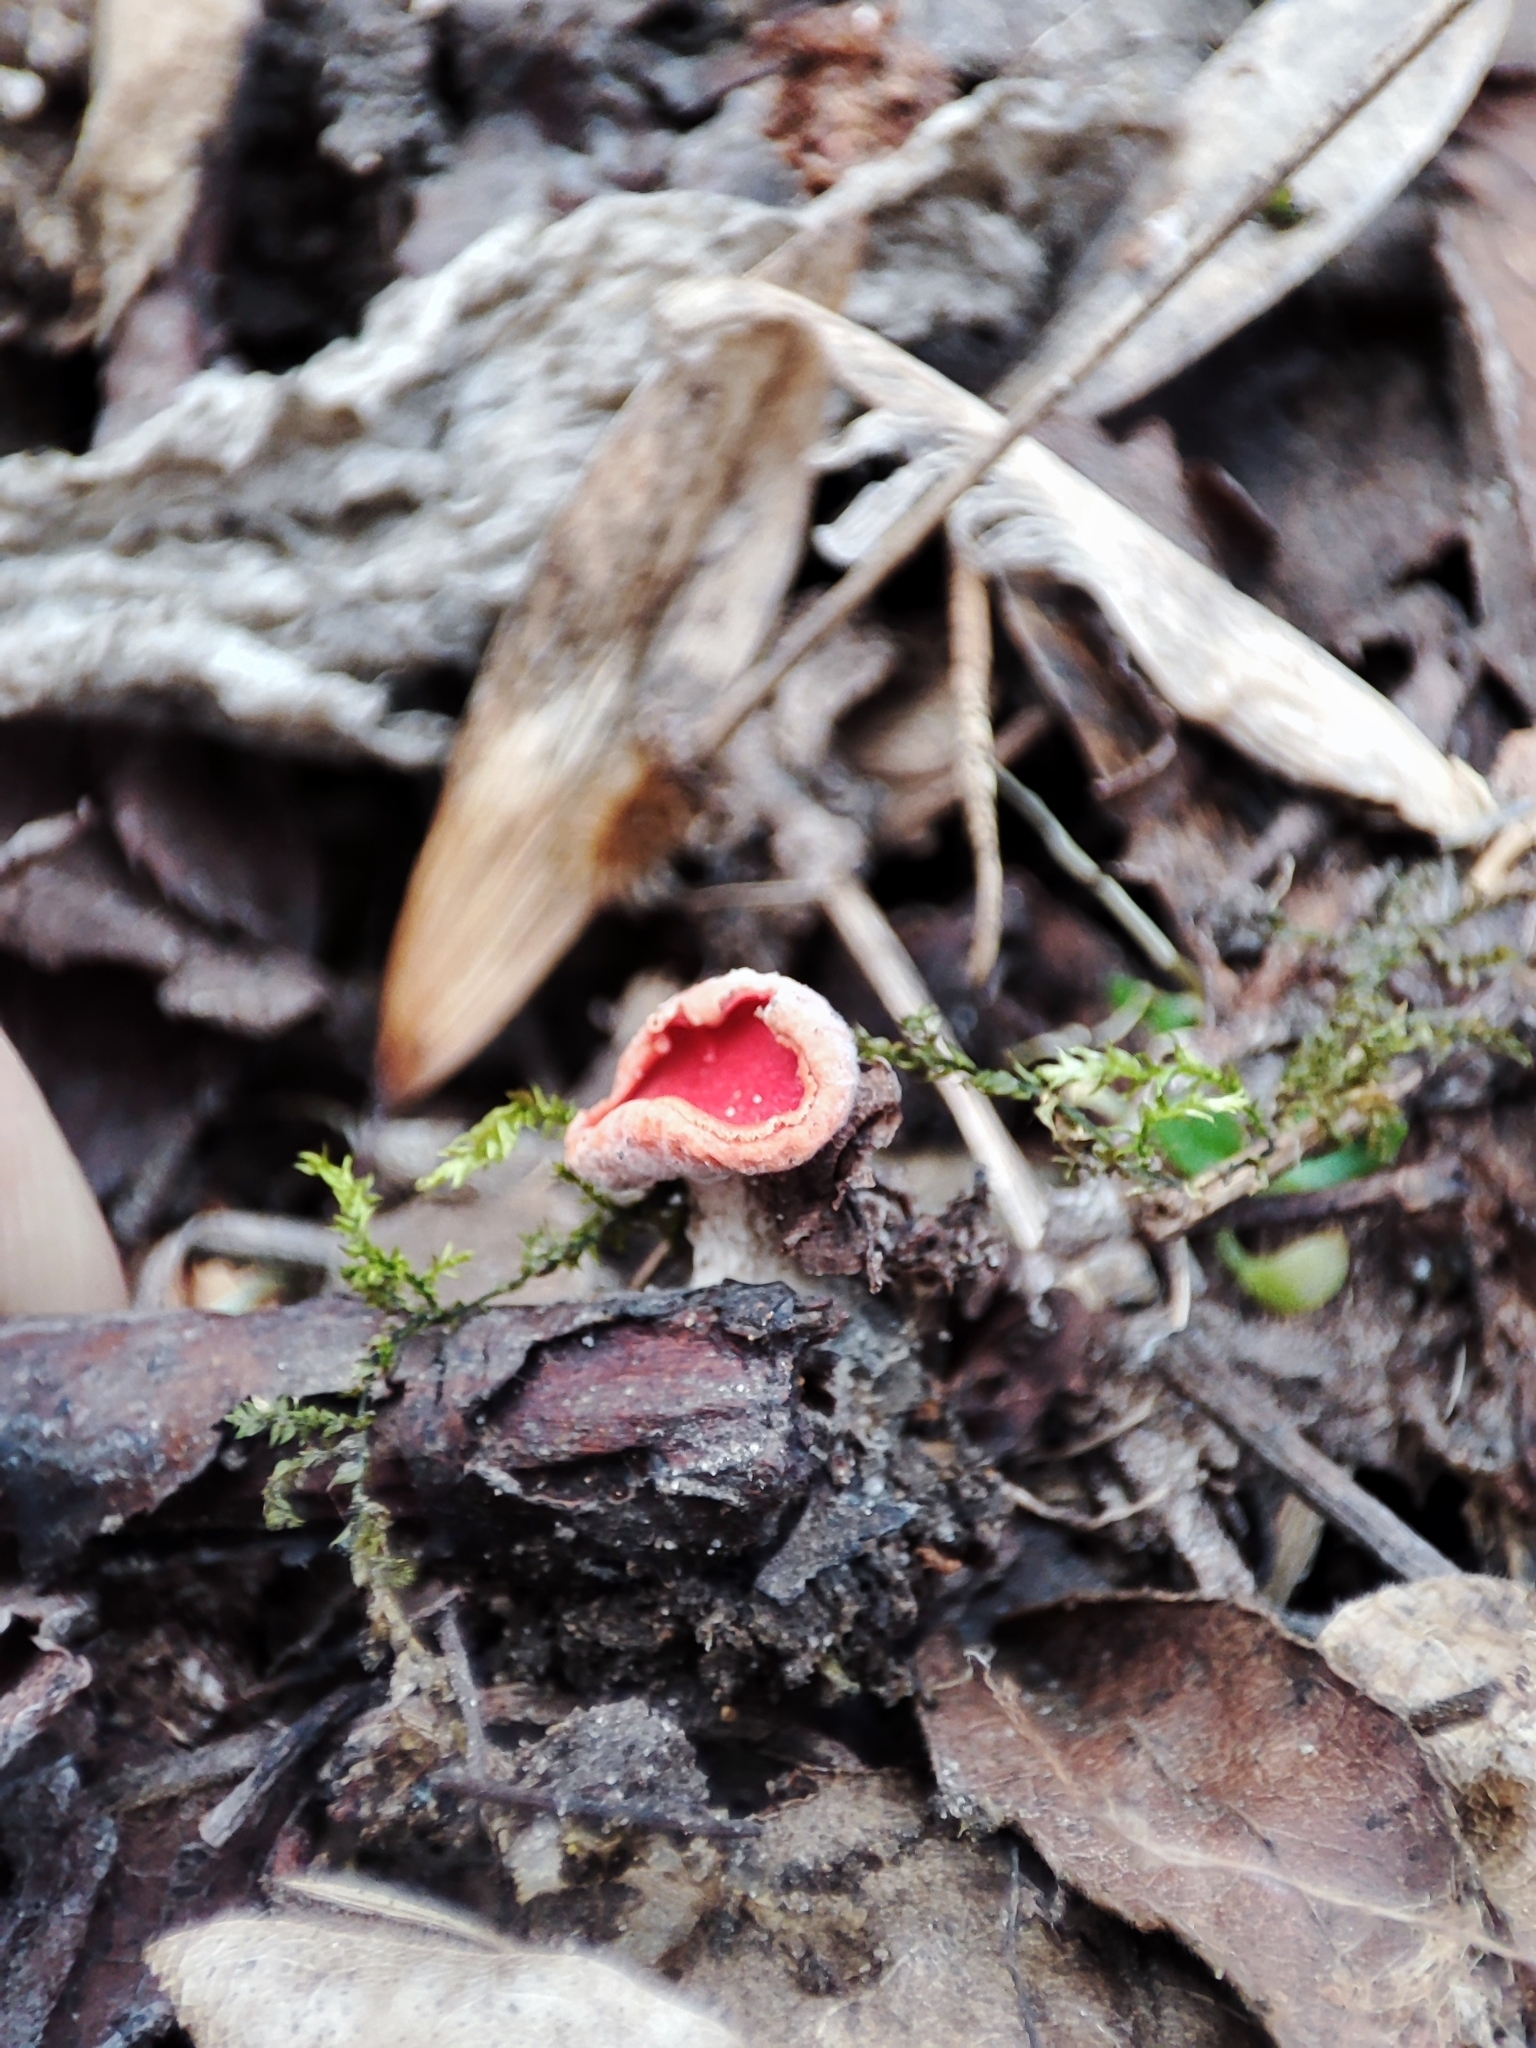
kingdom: Fungi
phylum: Ascomycota
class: Pezizomycetes
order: Pezizales
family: Sarcoscyphaceae
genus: Sarcoscypha
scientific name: Sarcoscypha
